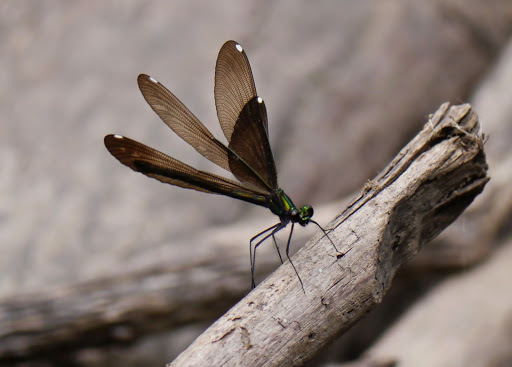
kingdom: Animalia
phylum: Arthropoda
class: Insecta
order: Odonata
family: Calopterygidae
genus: Calopteryx
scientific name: Calopteryx maculata
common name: Ebony jewelwing
